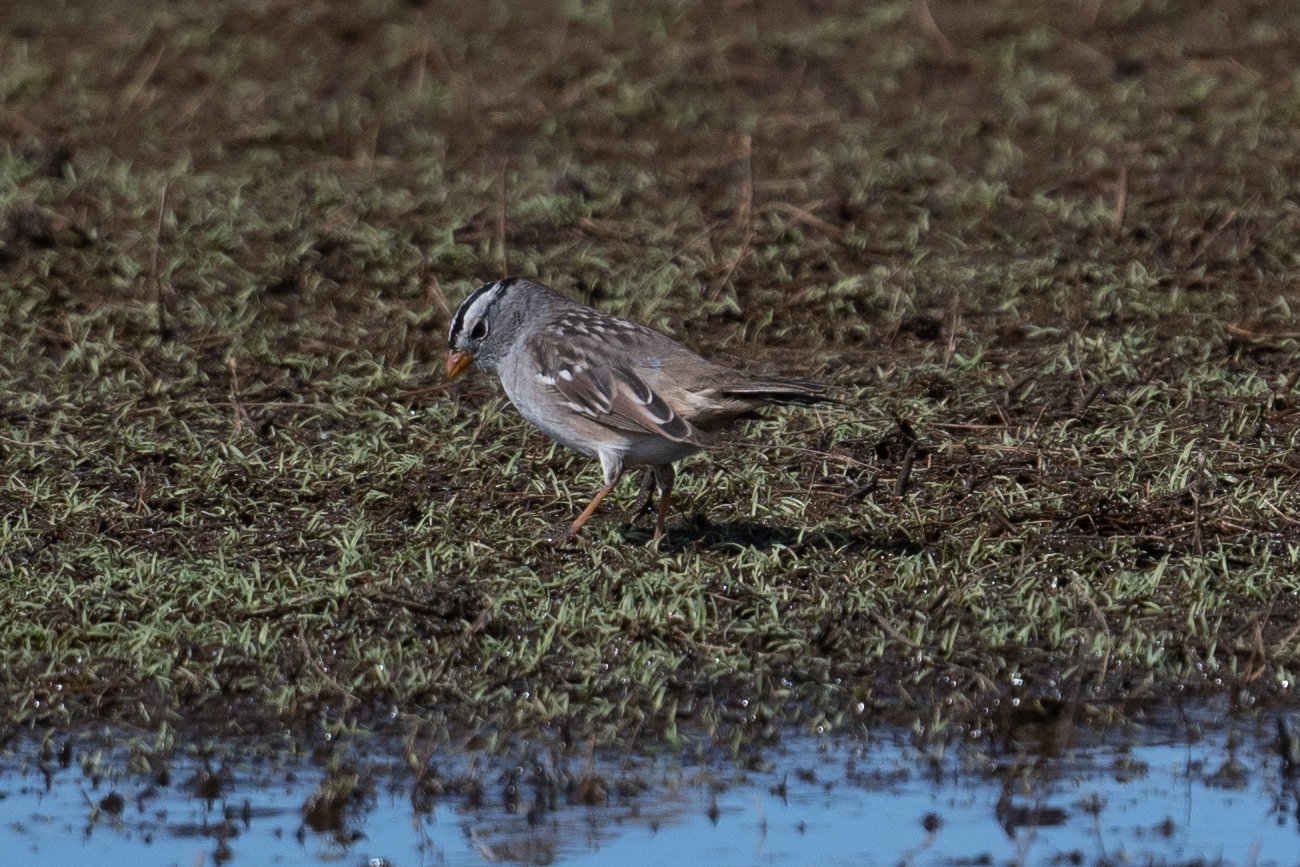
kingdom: Animalia
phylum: Chordata
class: Aves
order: Passeriformes
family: Passerellidae
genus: Zonotrichia
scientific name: Zonotrichia leucophrys
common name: White-crowned sparrow
